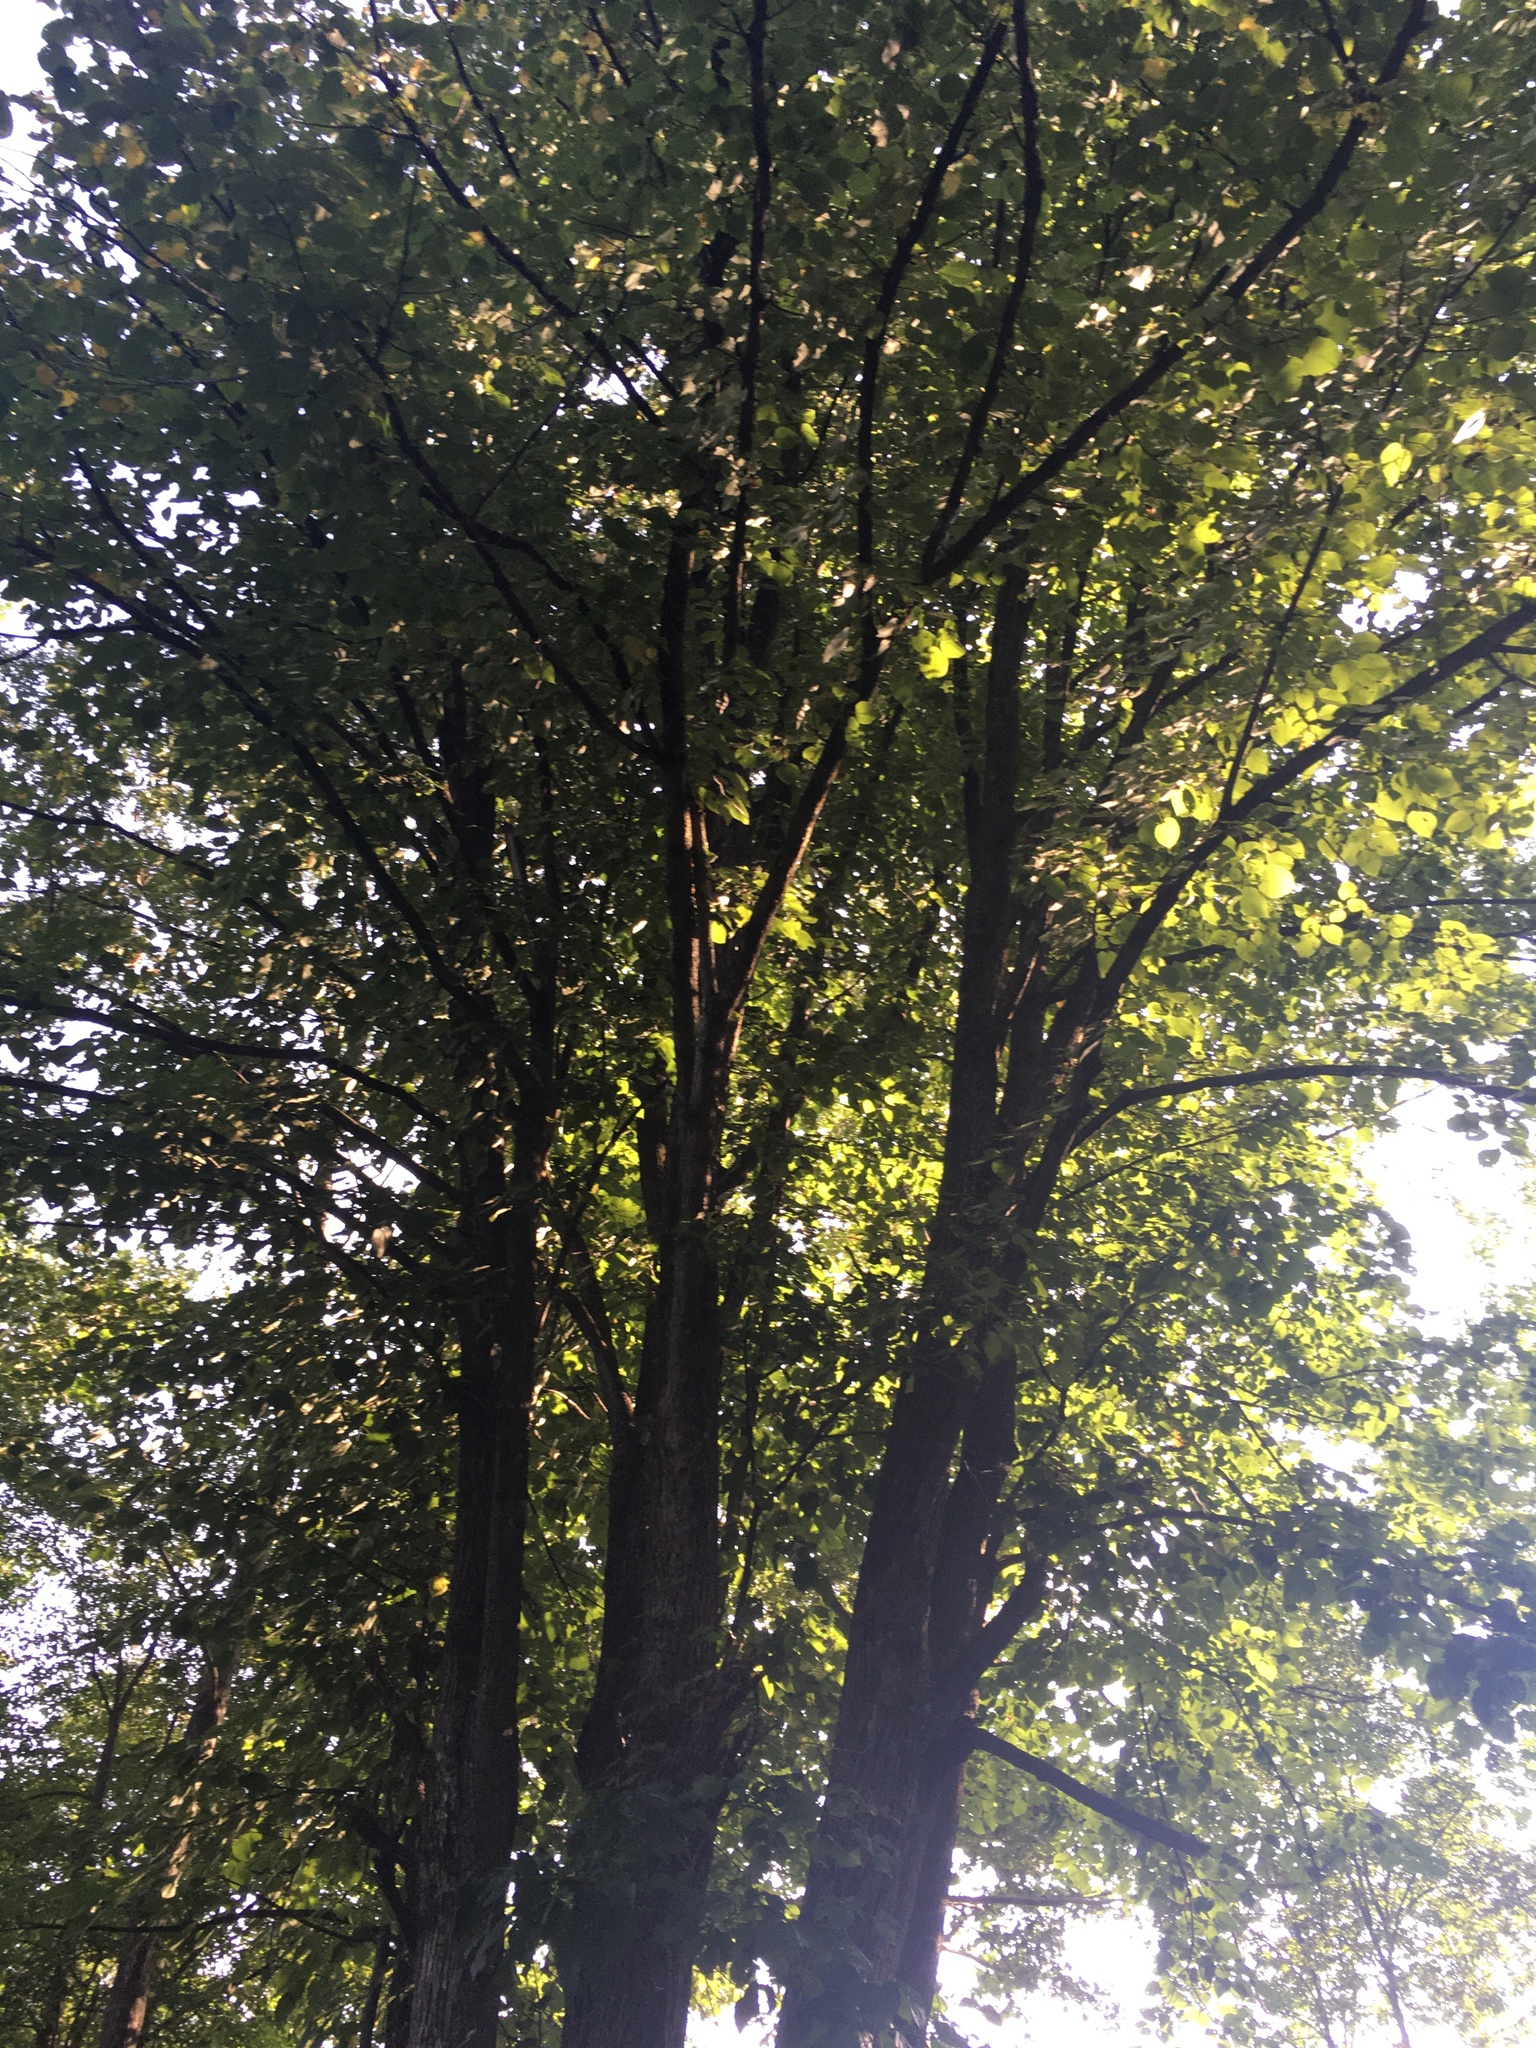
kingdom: Plantae
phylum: Tracheophyta
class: Magnoliopsida
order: Malvales
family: Malvaceae
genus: Tilia
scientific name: Tilia americana
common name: Basswood
